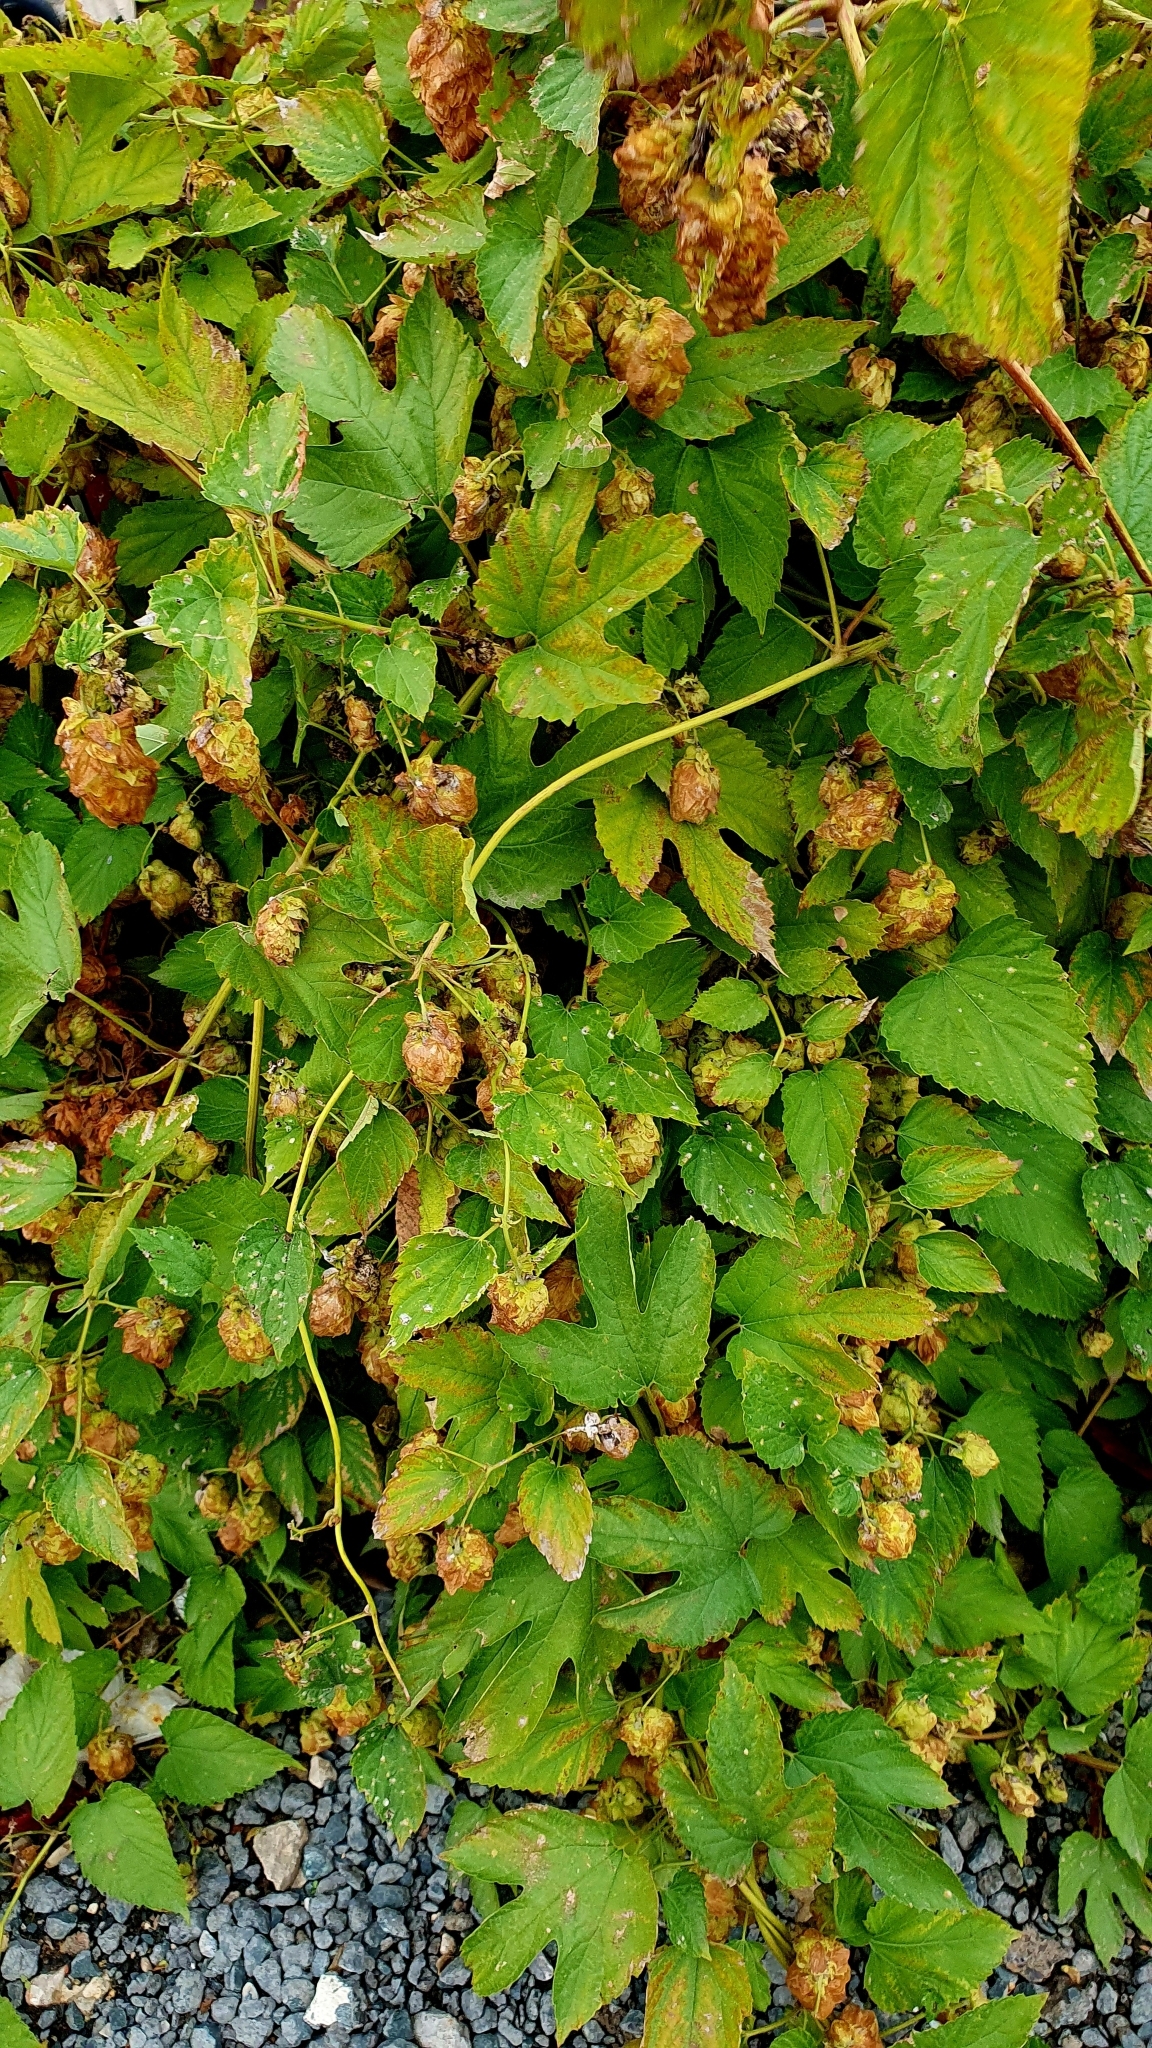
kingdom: Plantae
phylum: Tracheophyta
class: Magnoliopsida
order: Rosales
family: Cannabaceae
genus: Humulus
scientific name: Humulus lupulus
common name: Hop
